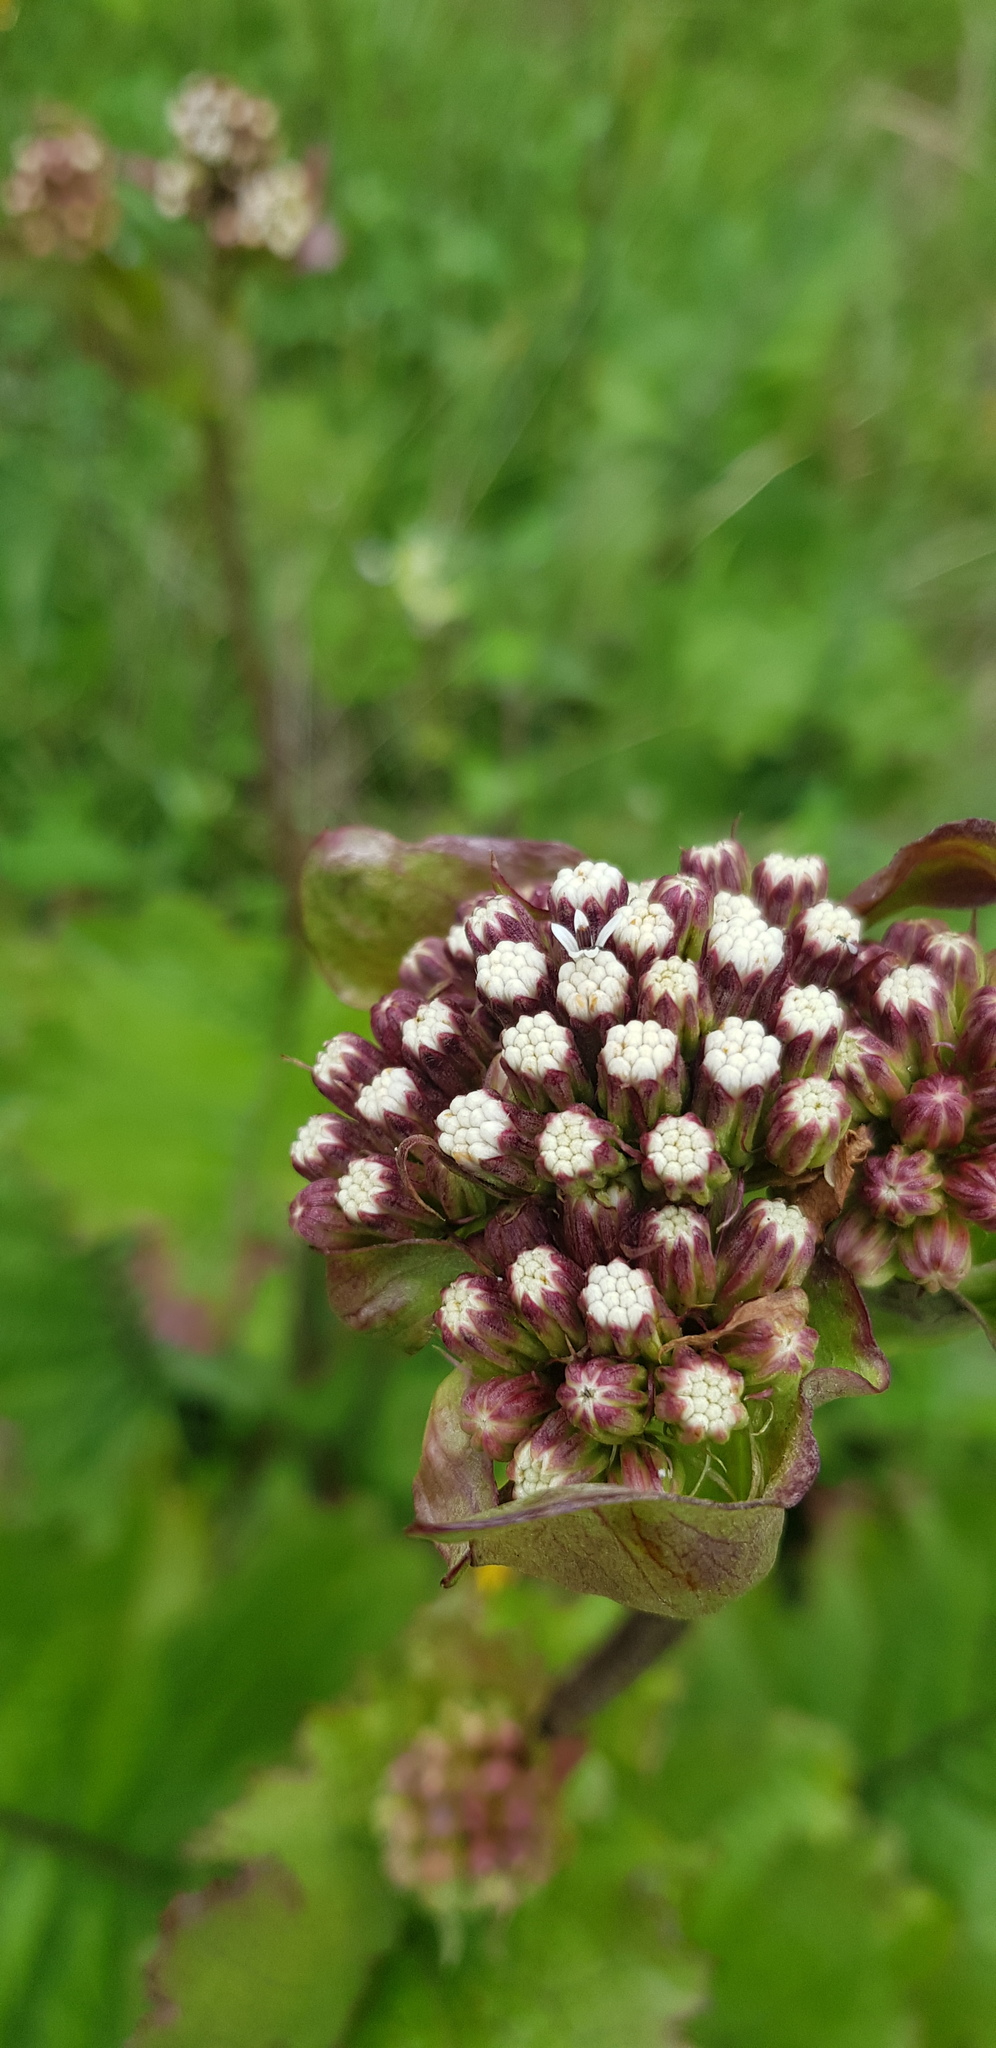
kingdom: Plantae
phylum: Tracheophyta
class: Magnoliopsida
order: Asterales
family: Asteraceae
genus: Psacalium
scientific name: Psacalium amplifolium
